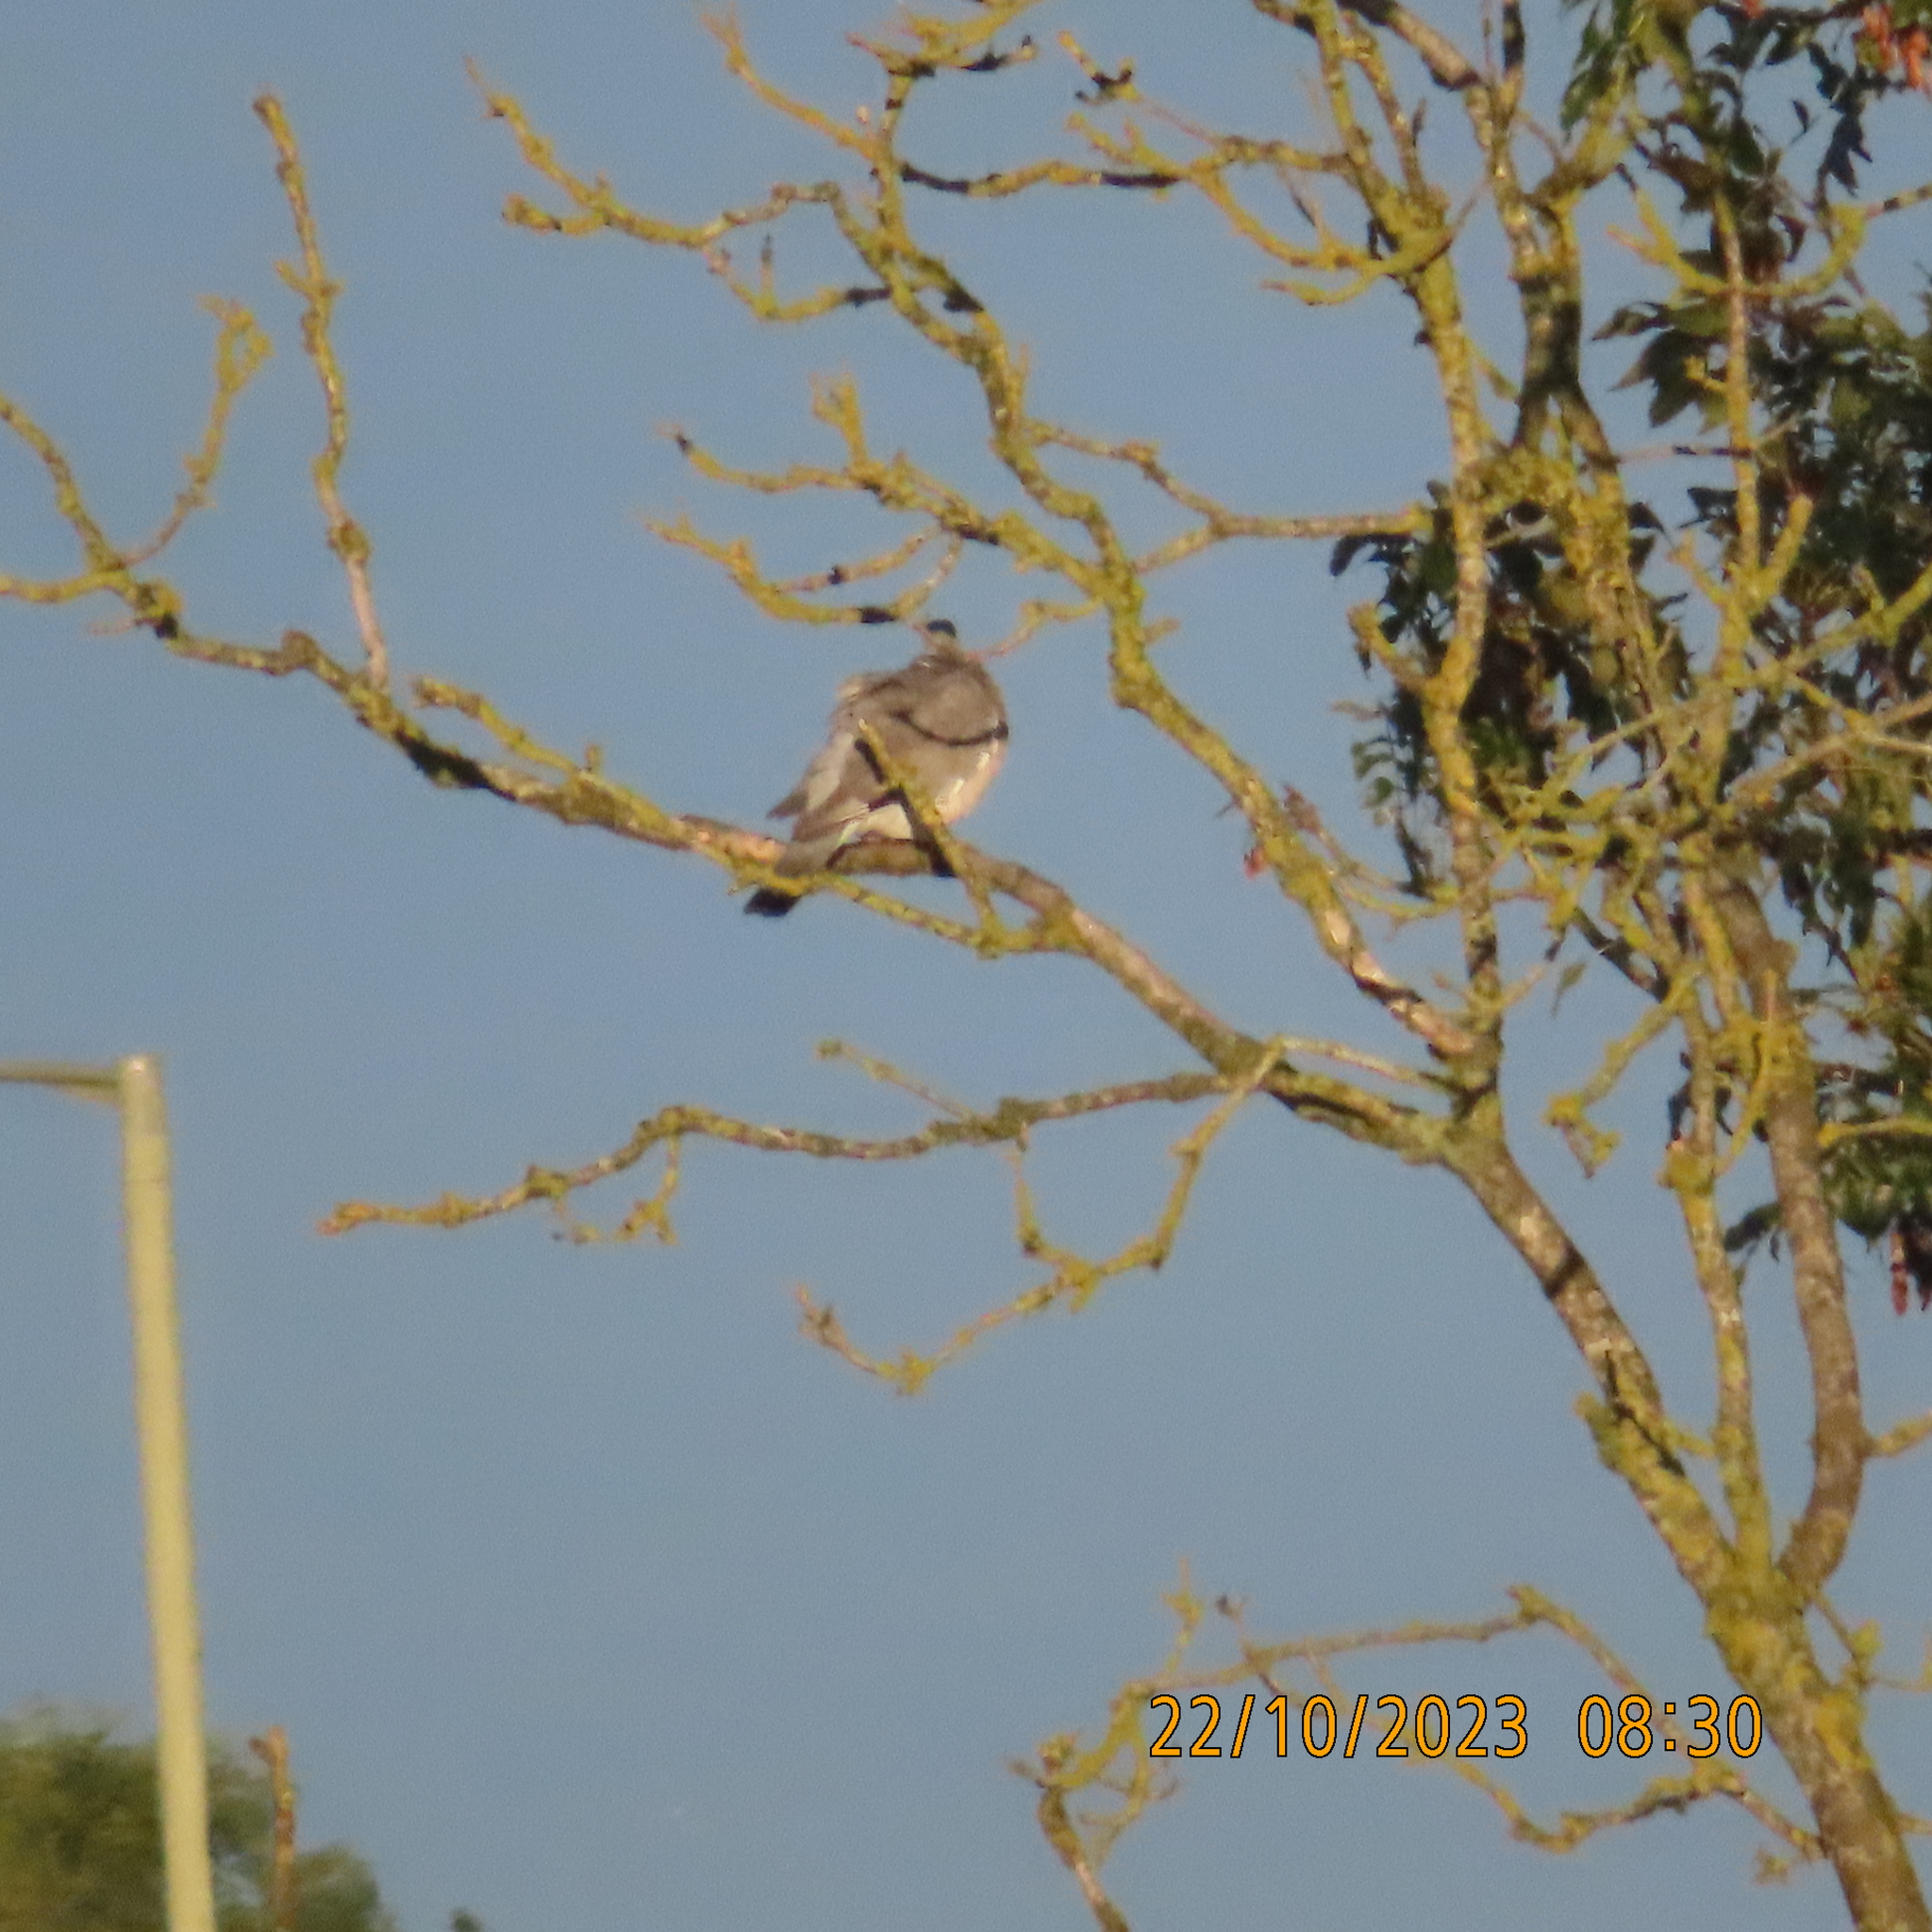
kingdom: Animalia
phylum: Chordata
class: Aves
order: Columbiformes
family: Columbidae
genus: Columba
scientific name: Columba palumbus
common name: Common wood pigeon
